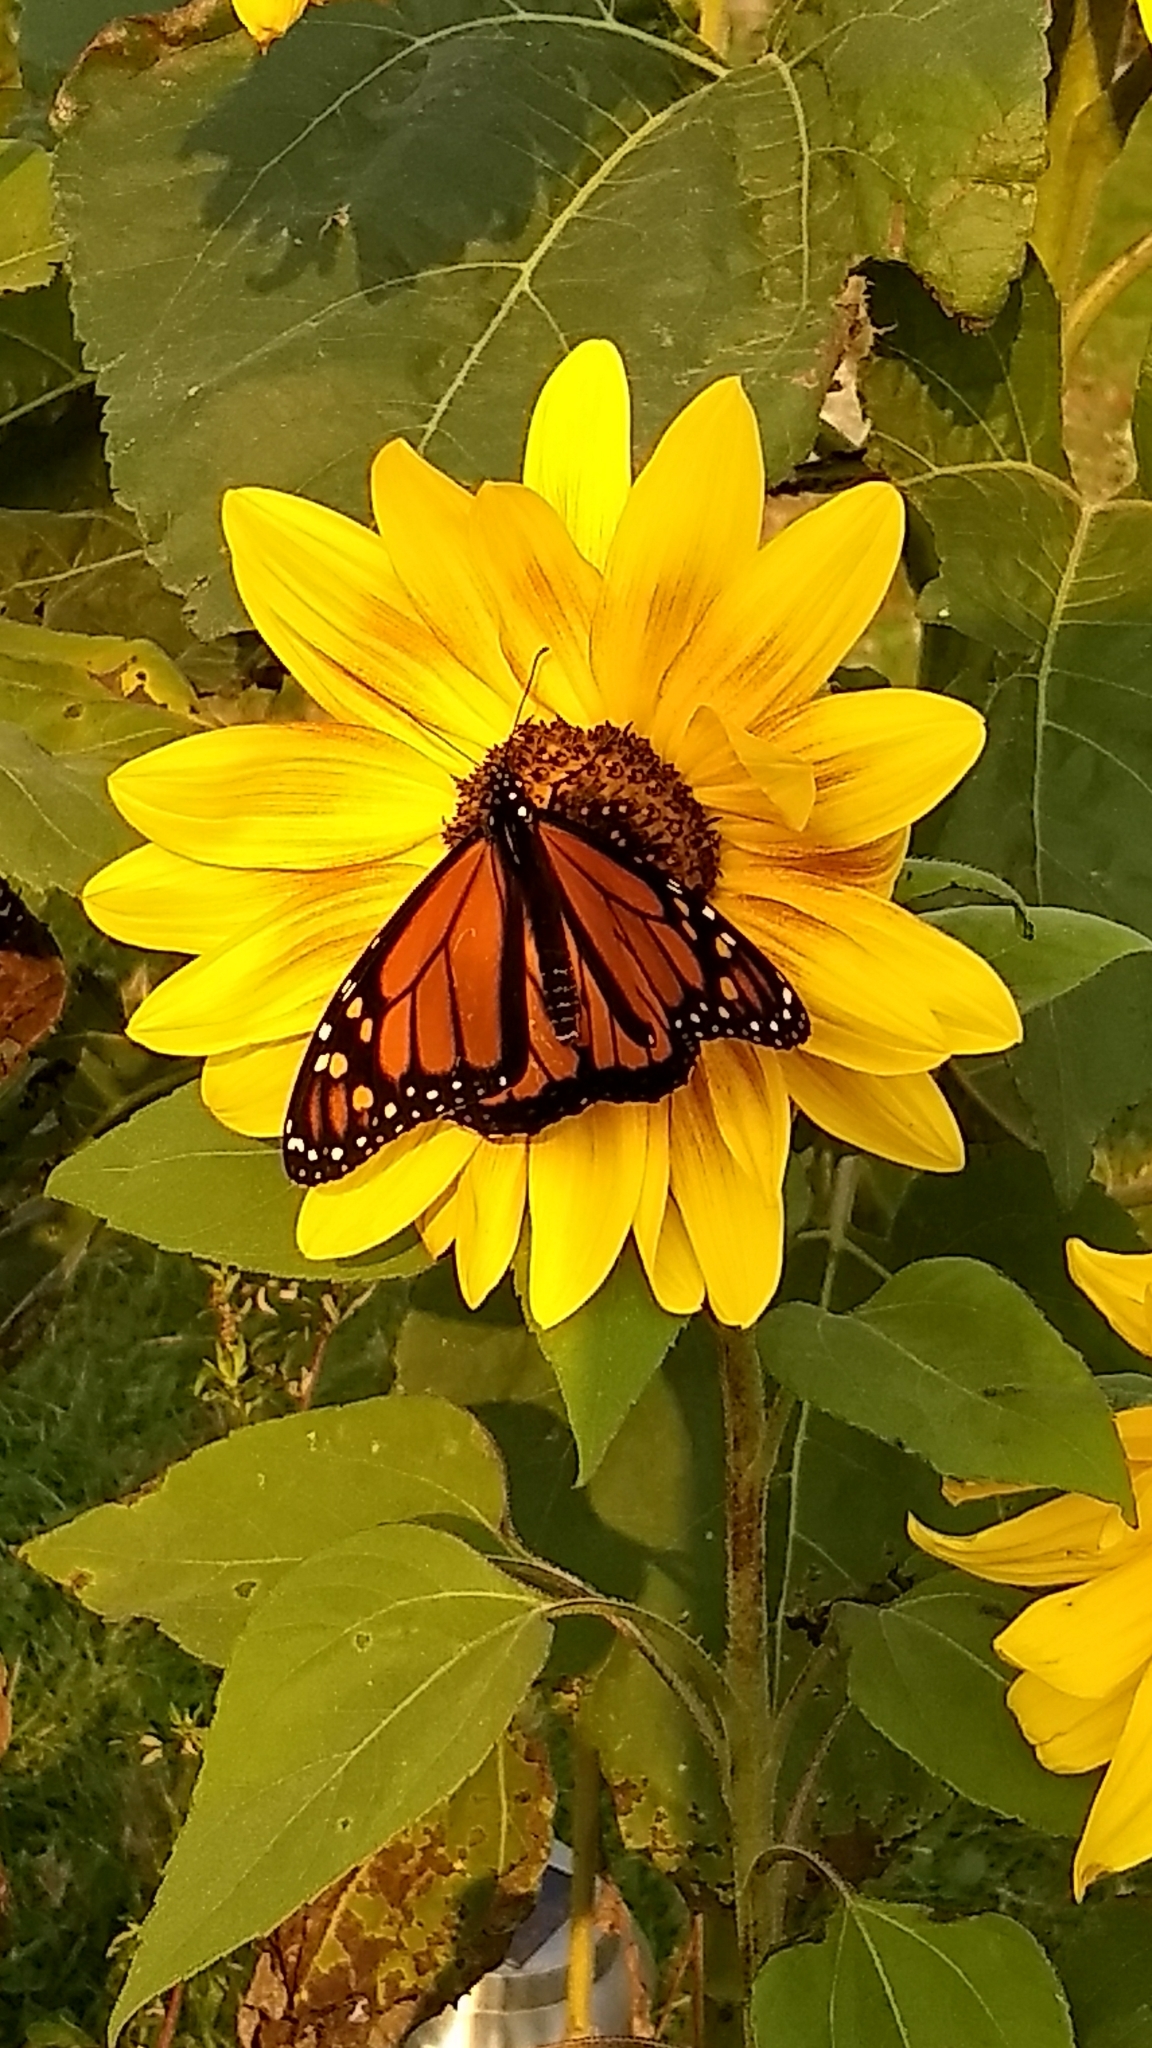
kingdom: Animalia
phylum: Arthropoda
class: Insecta
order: Lepidoptera
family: Nymphalidae
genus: Danaus
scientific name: Danaus plexippus
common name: Monarch
